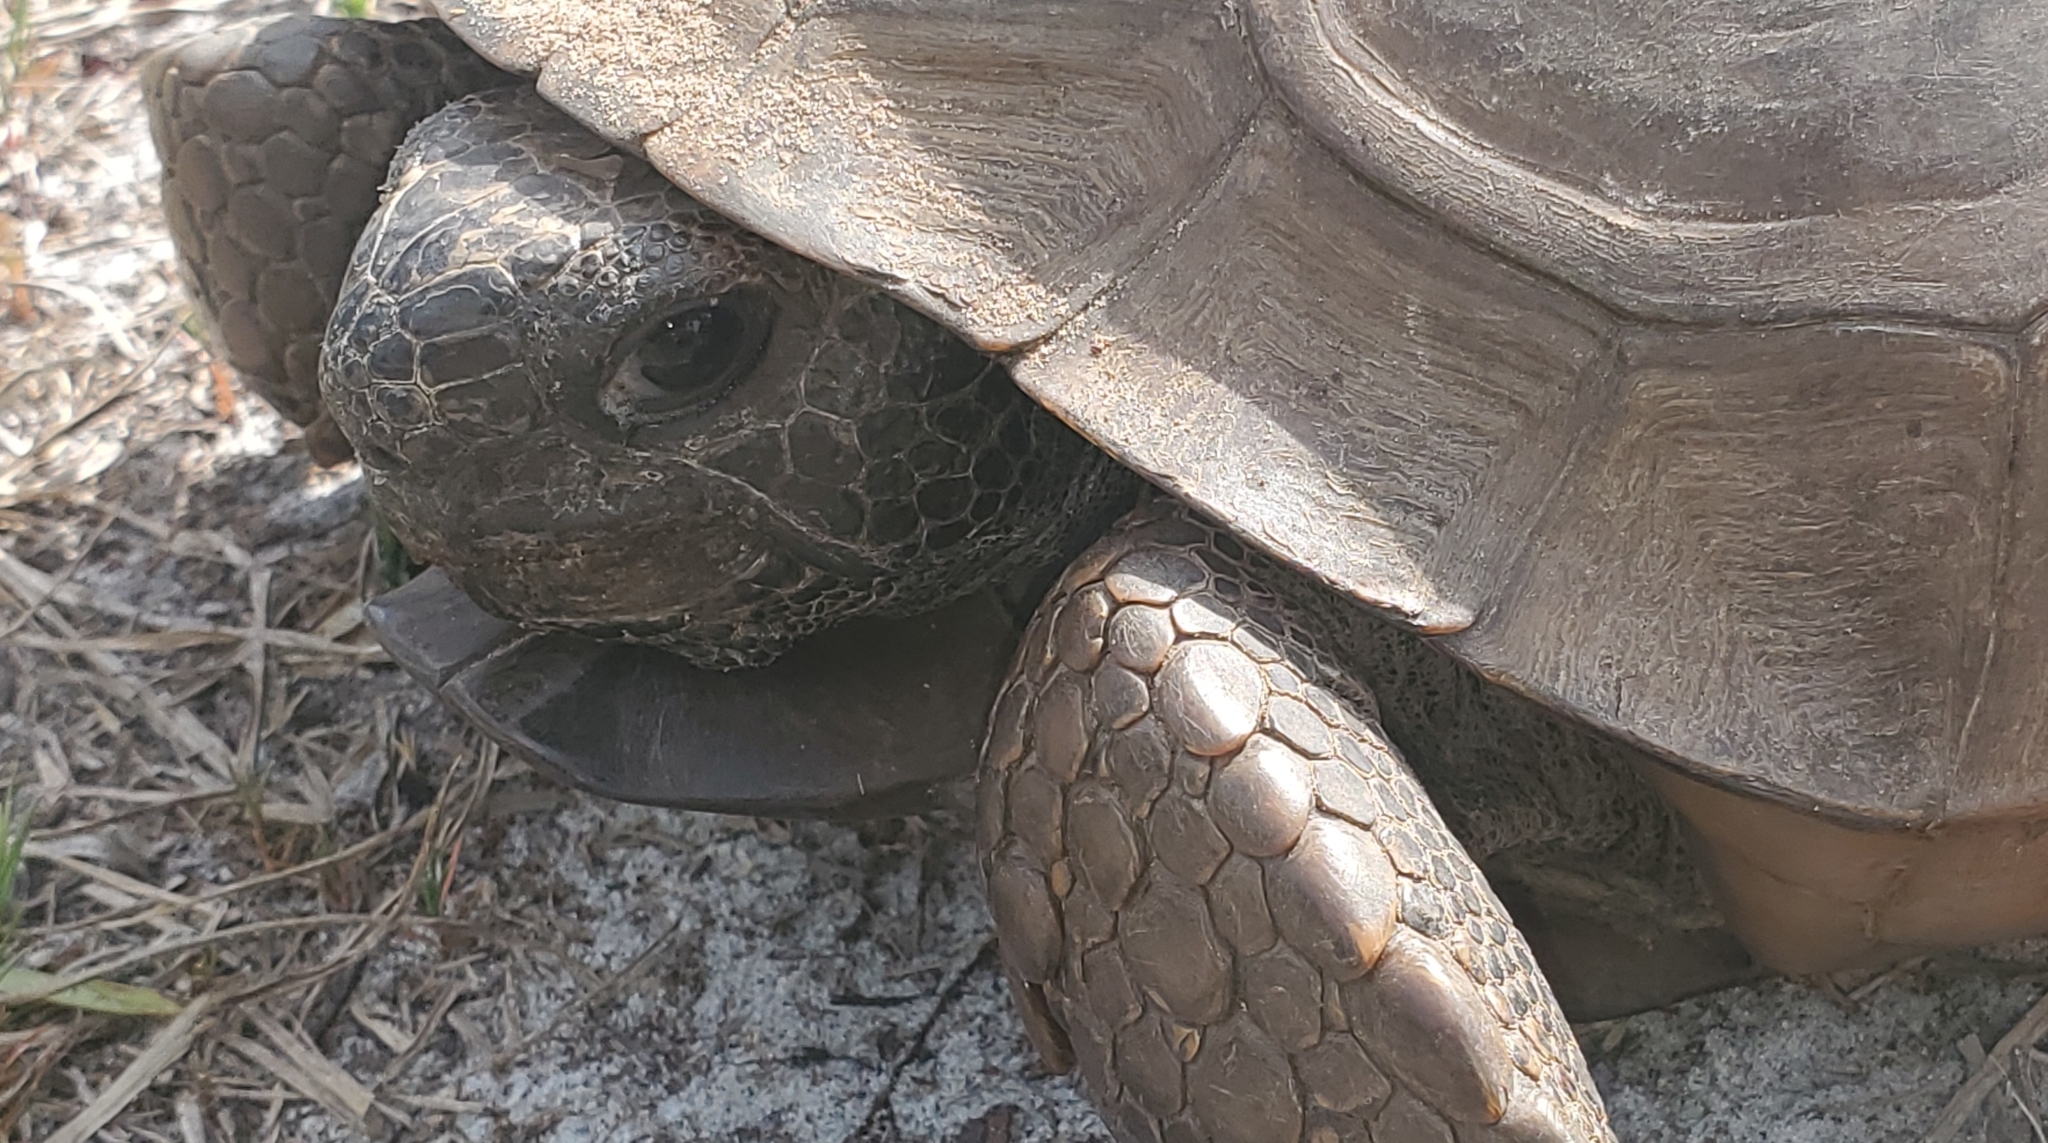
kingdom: Animalia
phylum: Chordata
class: Testudines
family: Testudinidae
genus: Gopherus
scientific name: Gopherus polyphemus
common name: Florida gopher tortoise
